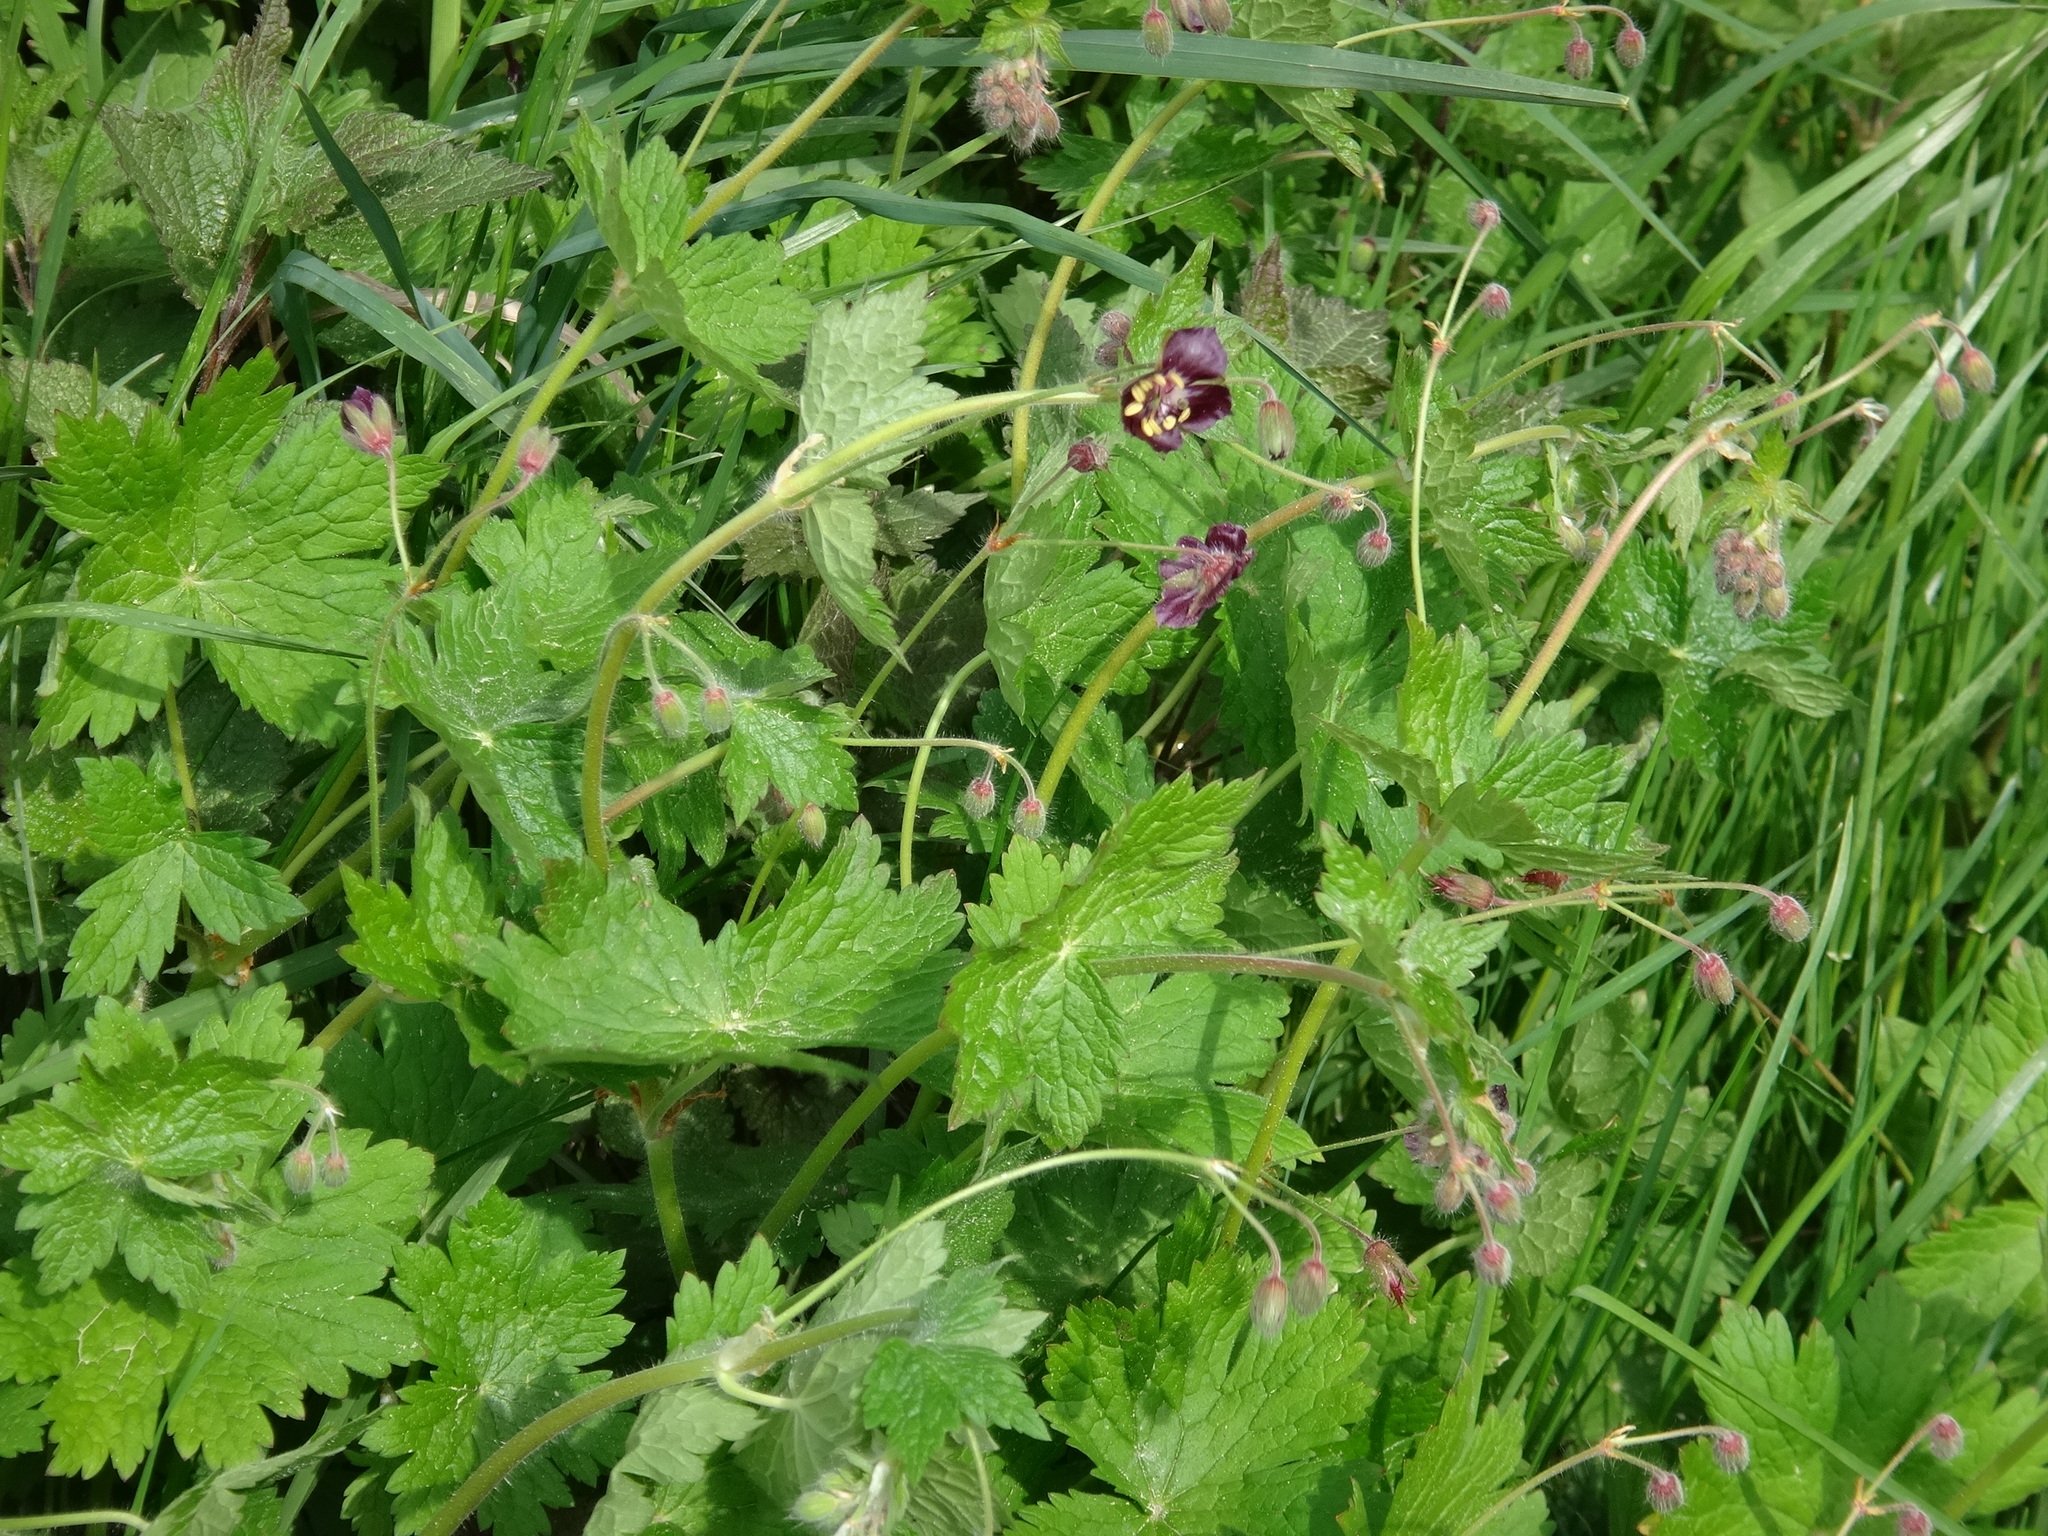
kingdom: Plantae
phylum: Tracheophyta
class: Magnoliopsida
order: Geraniales
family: Geraniaceae
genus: Geranium
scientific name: Geranium phaeum
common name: Dusky crane's-bill
